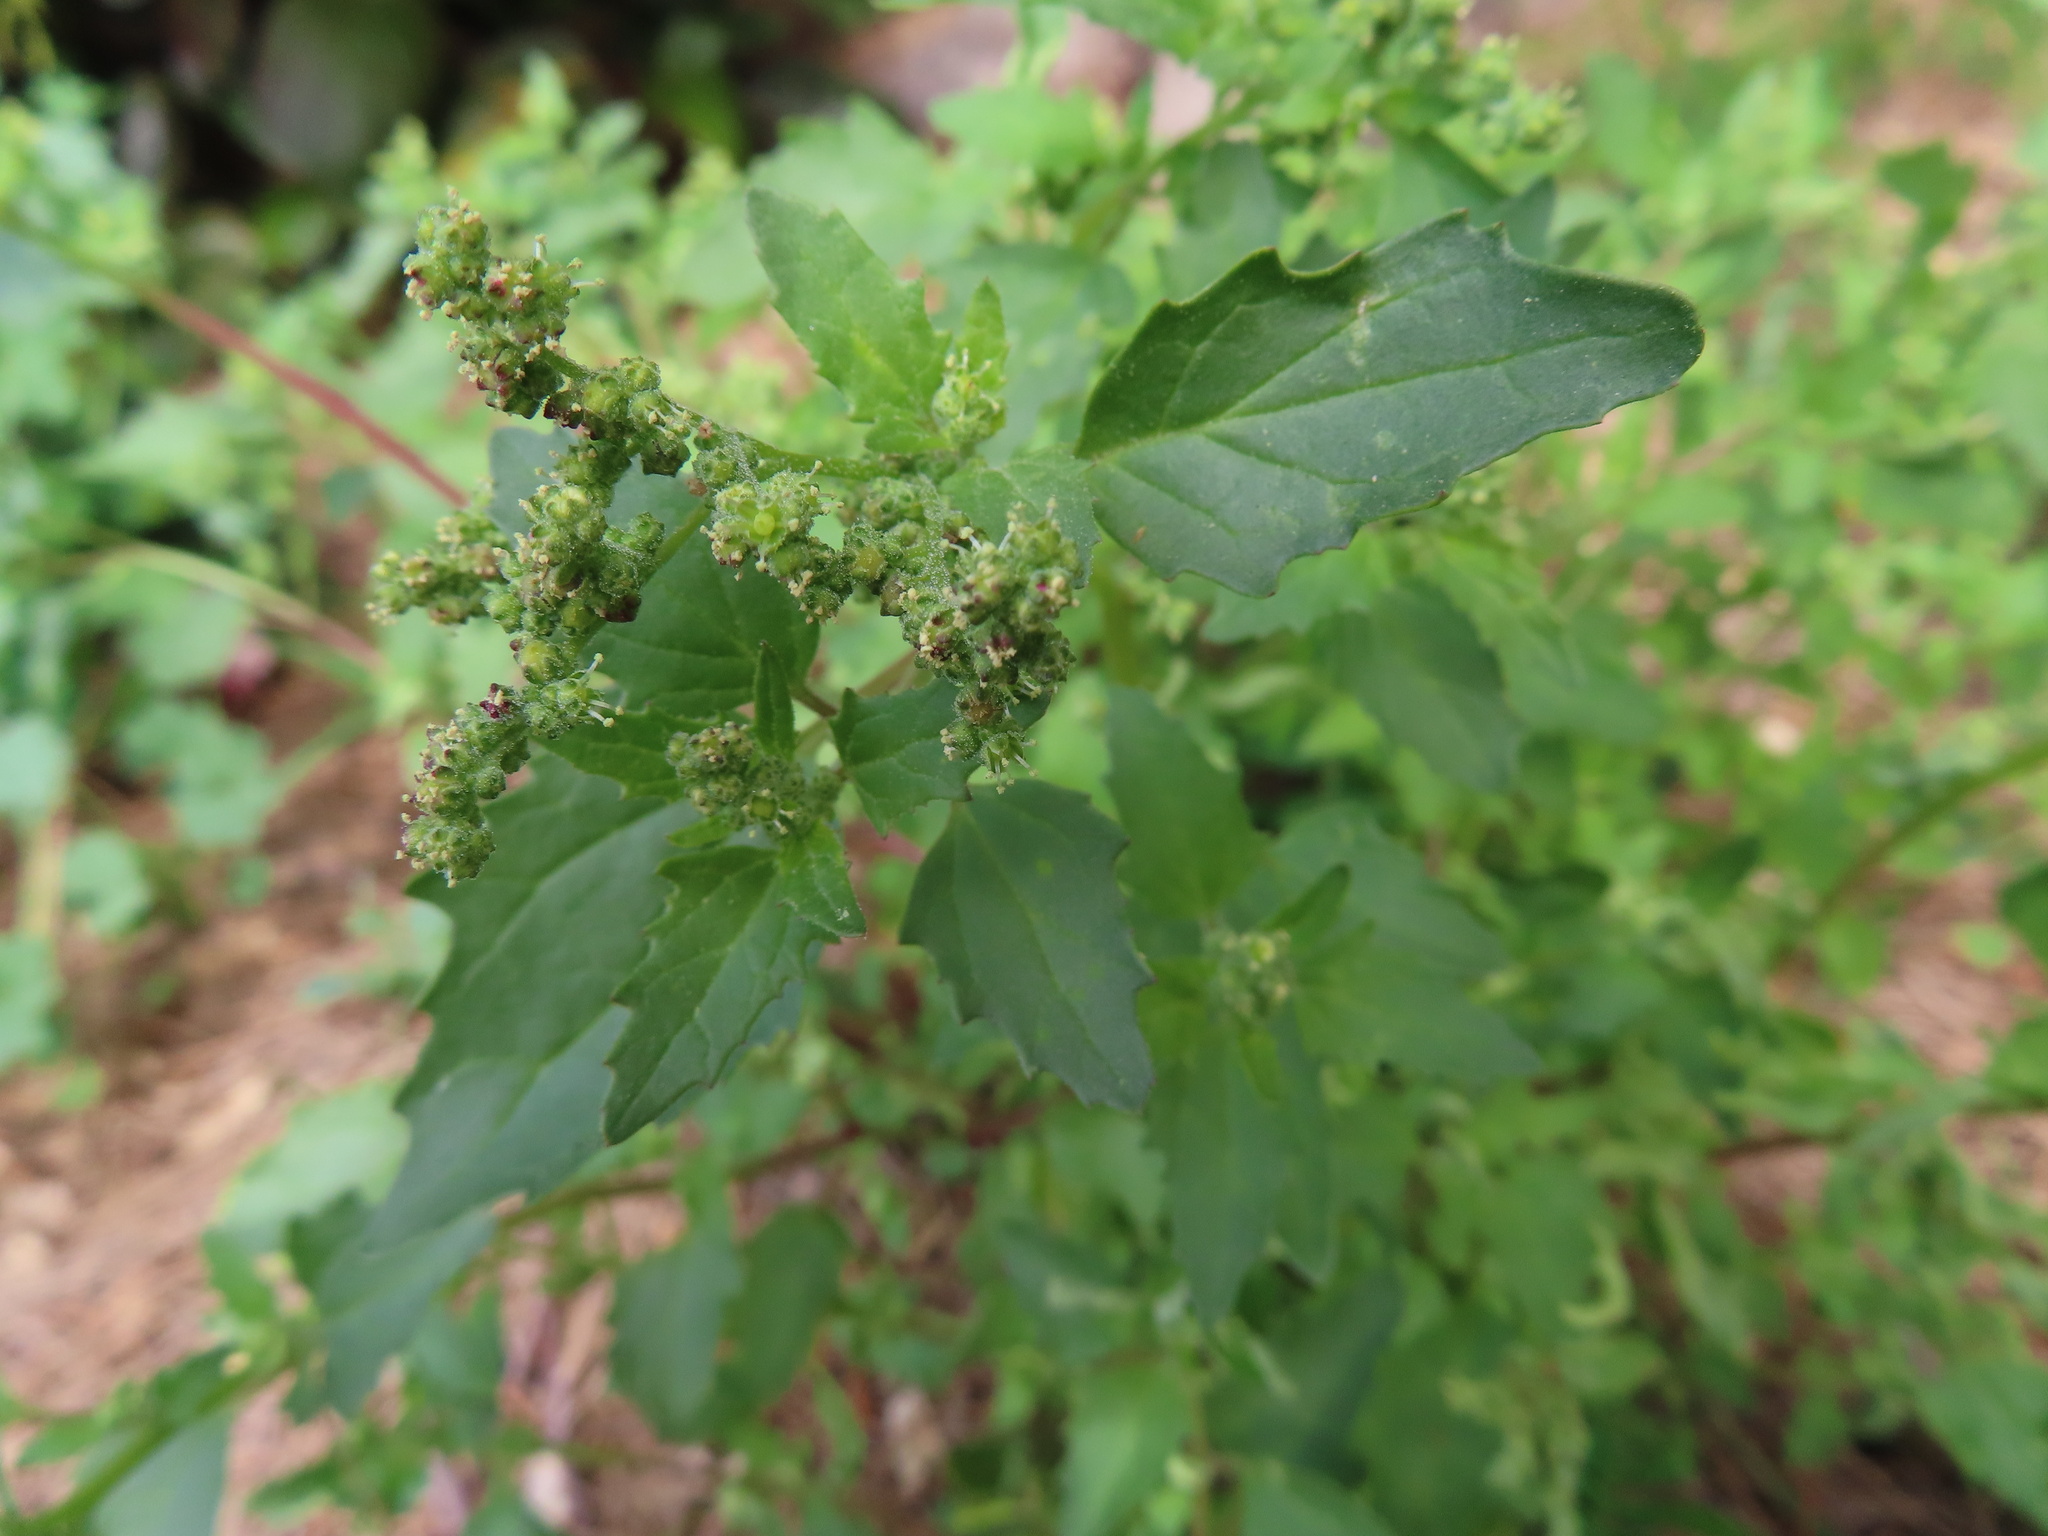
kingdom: Plantae
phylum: Tracheophyta
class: Magnoliopsida
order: Caryophyllales
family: Amaranthaceae
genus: Chenopodiastrum
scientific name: Chenopodiastrum murale
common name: Sowbane
